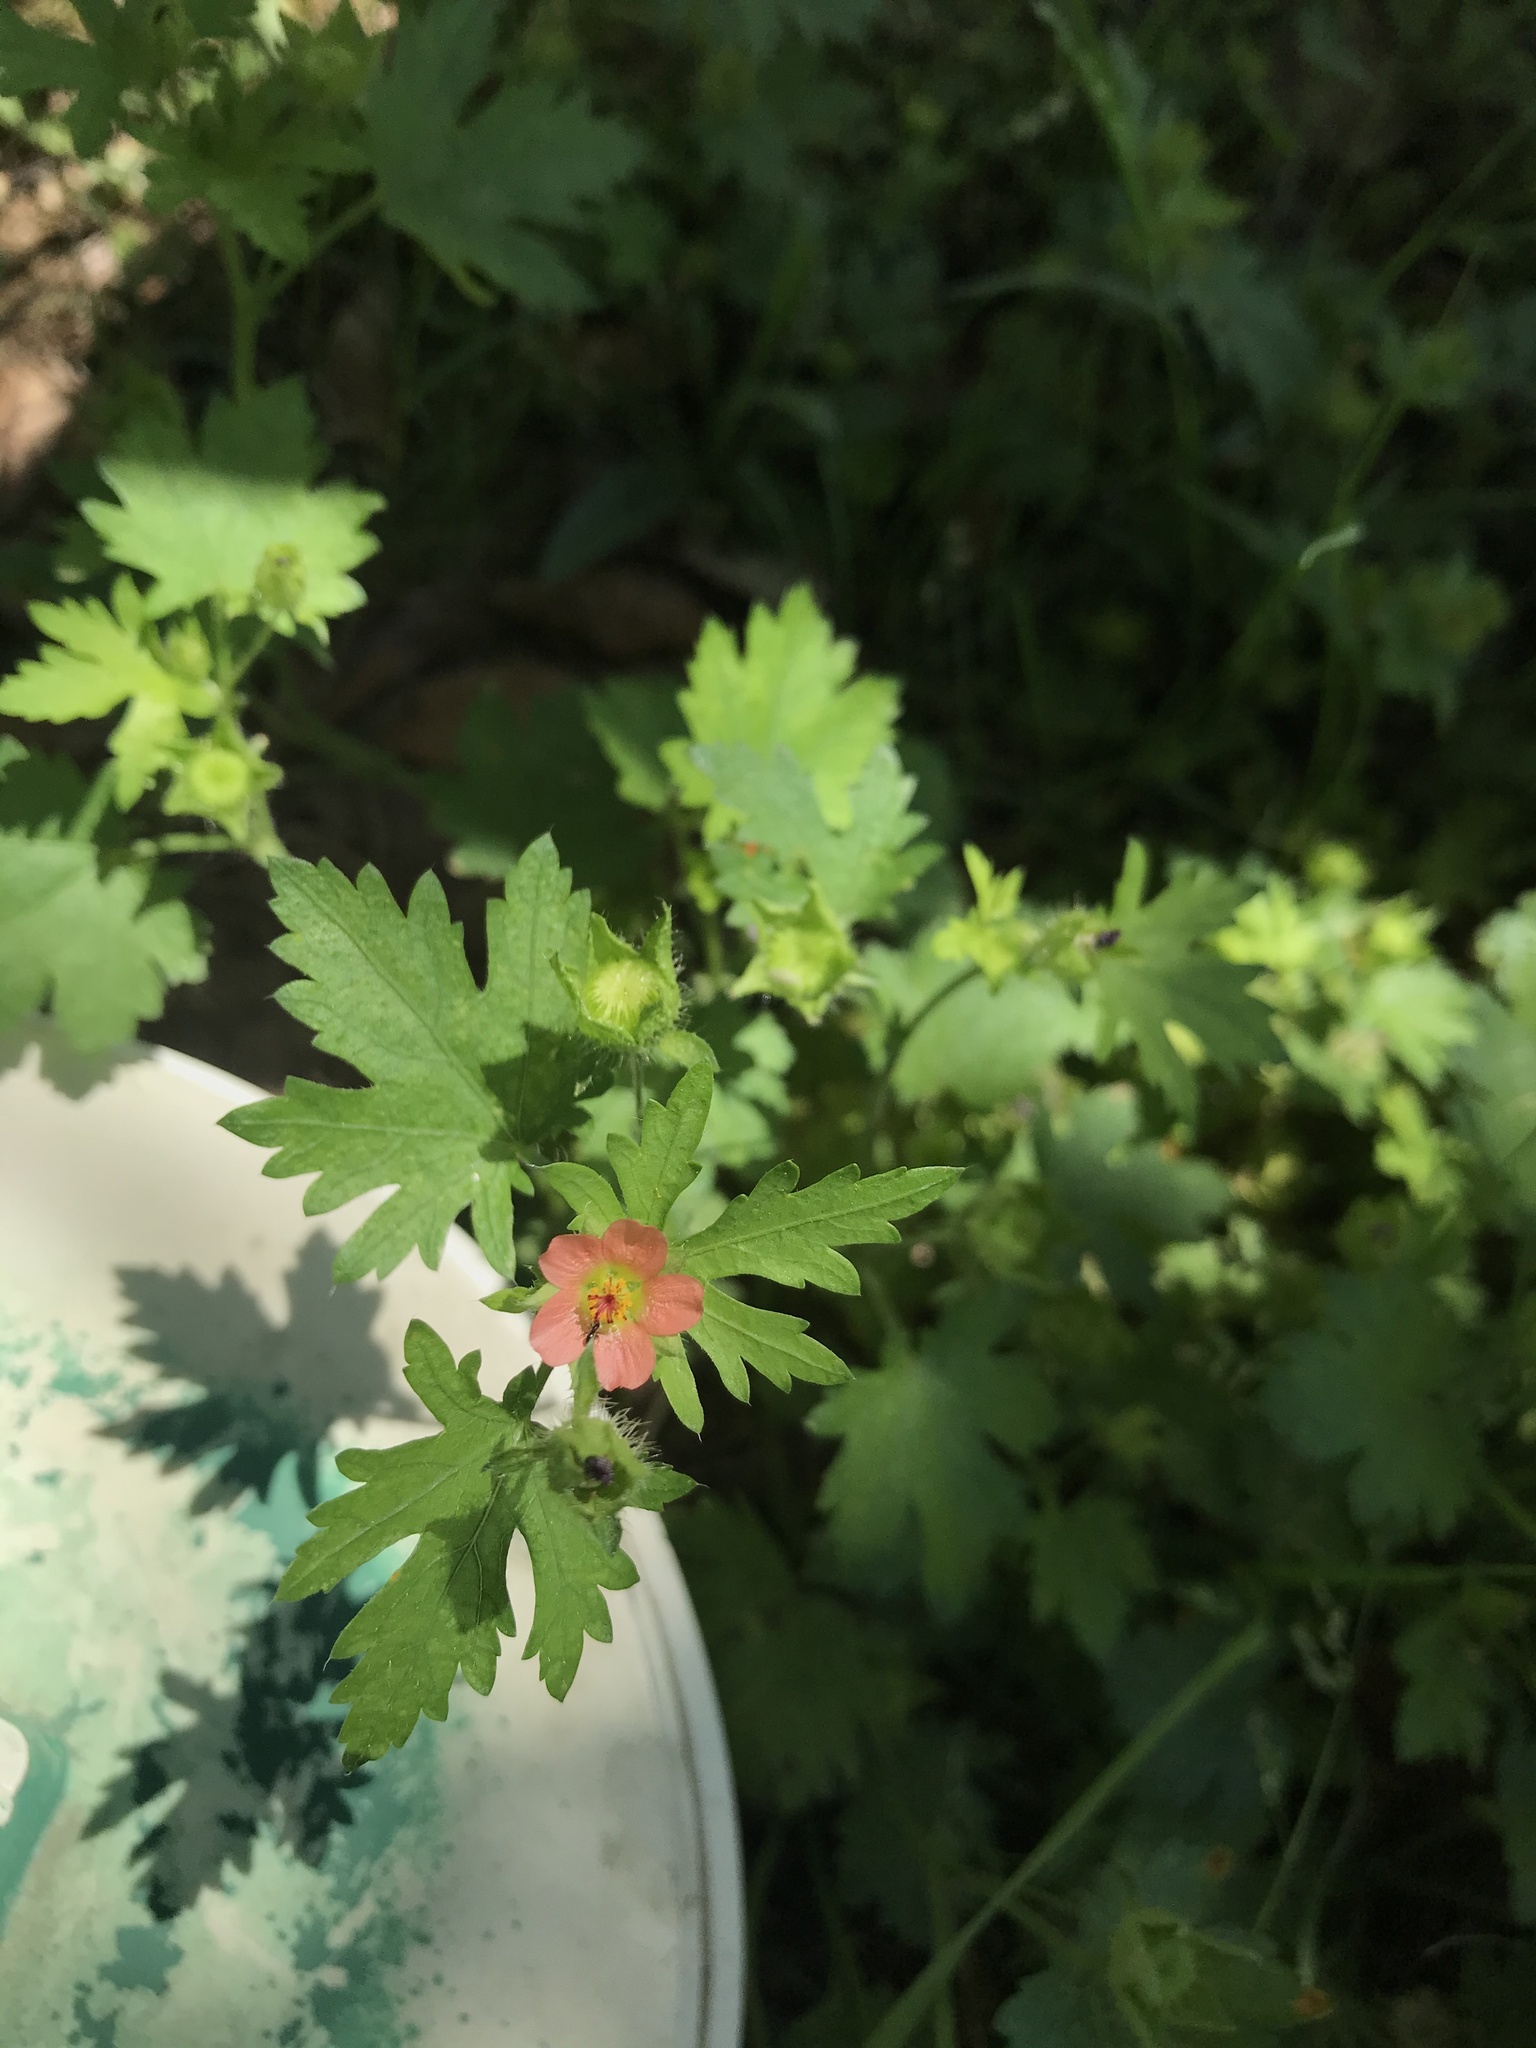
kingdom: Plantae
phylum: Tracheophyta
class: Magnoliopsida
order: Malvales
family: Malvaceae
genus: Modiola
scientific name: Modiola caroliniana
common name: Carolina bristlemallow
